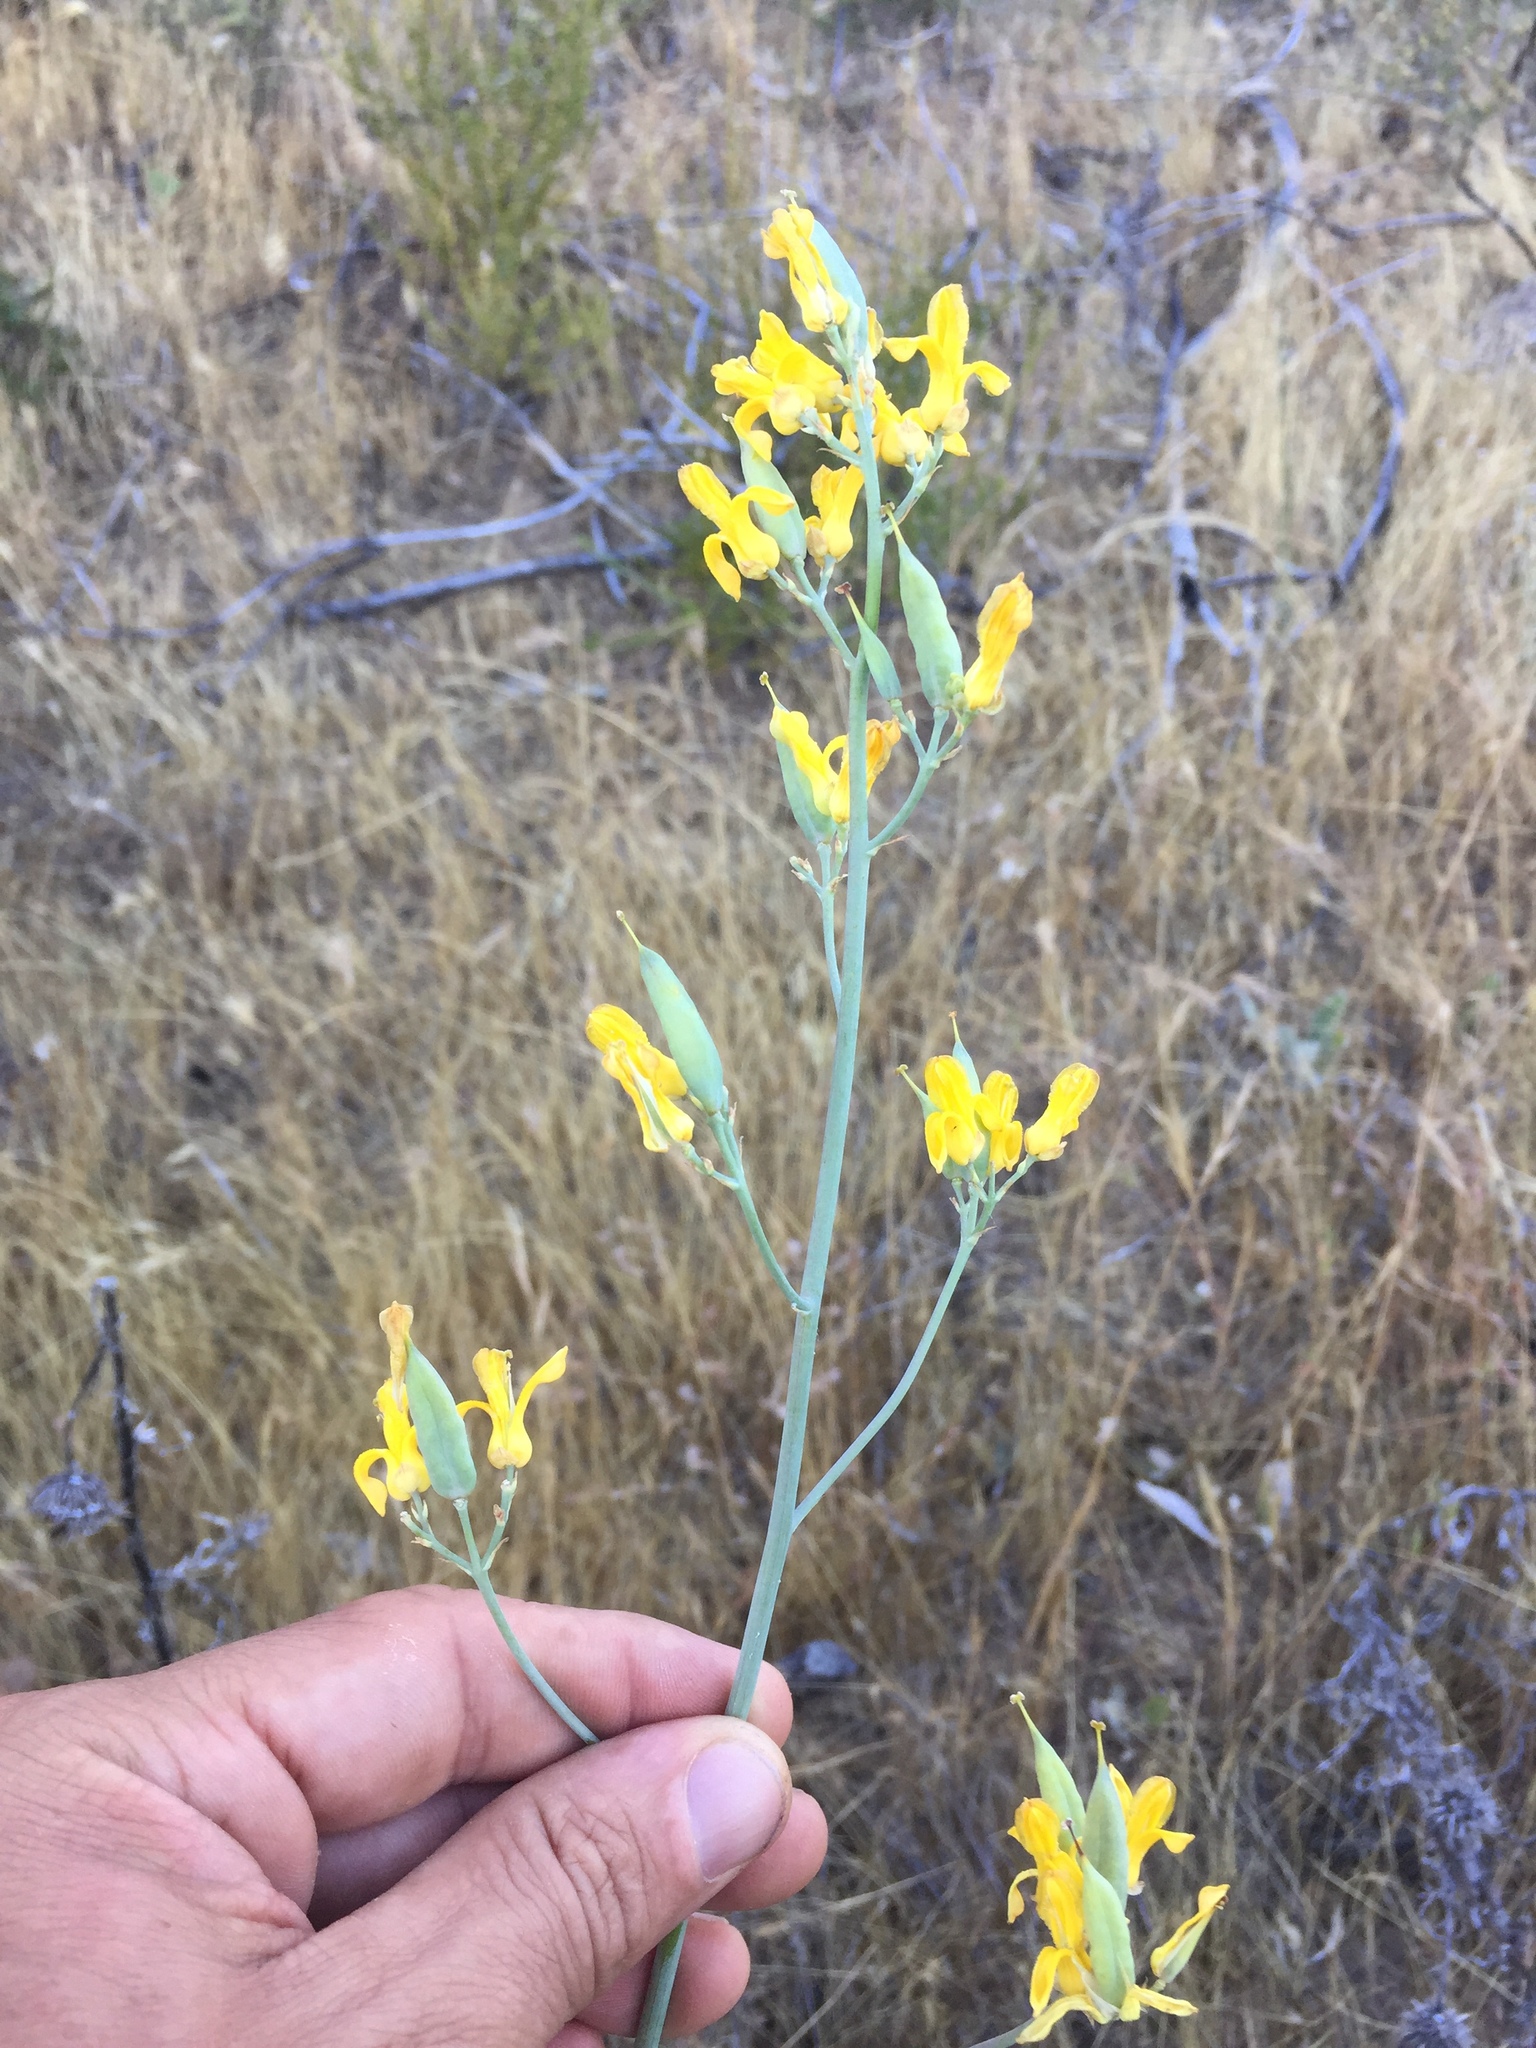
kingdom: Plantae
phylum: Tracheophyta
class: Magnoliopsida
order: Ranunculales
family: Papaveraceae
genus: Ehrendorferia
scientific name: Ehrendorferia chrysantha
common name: Golden eardrops
